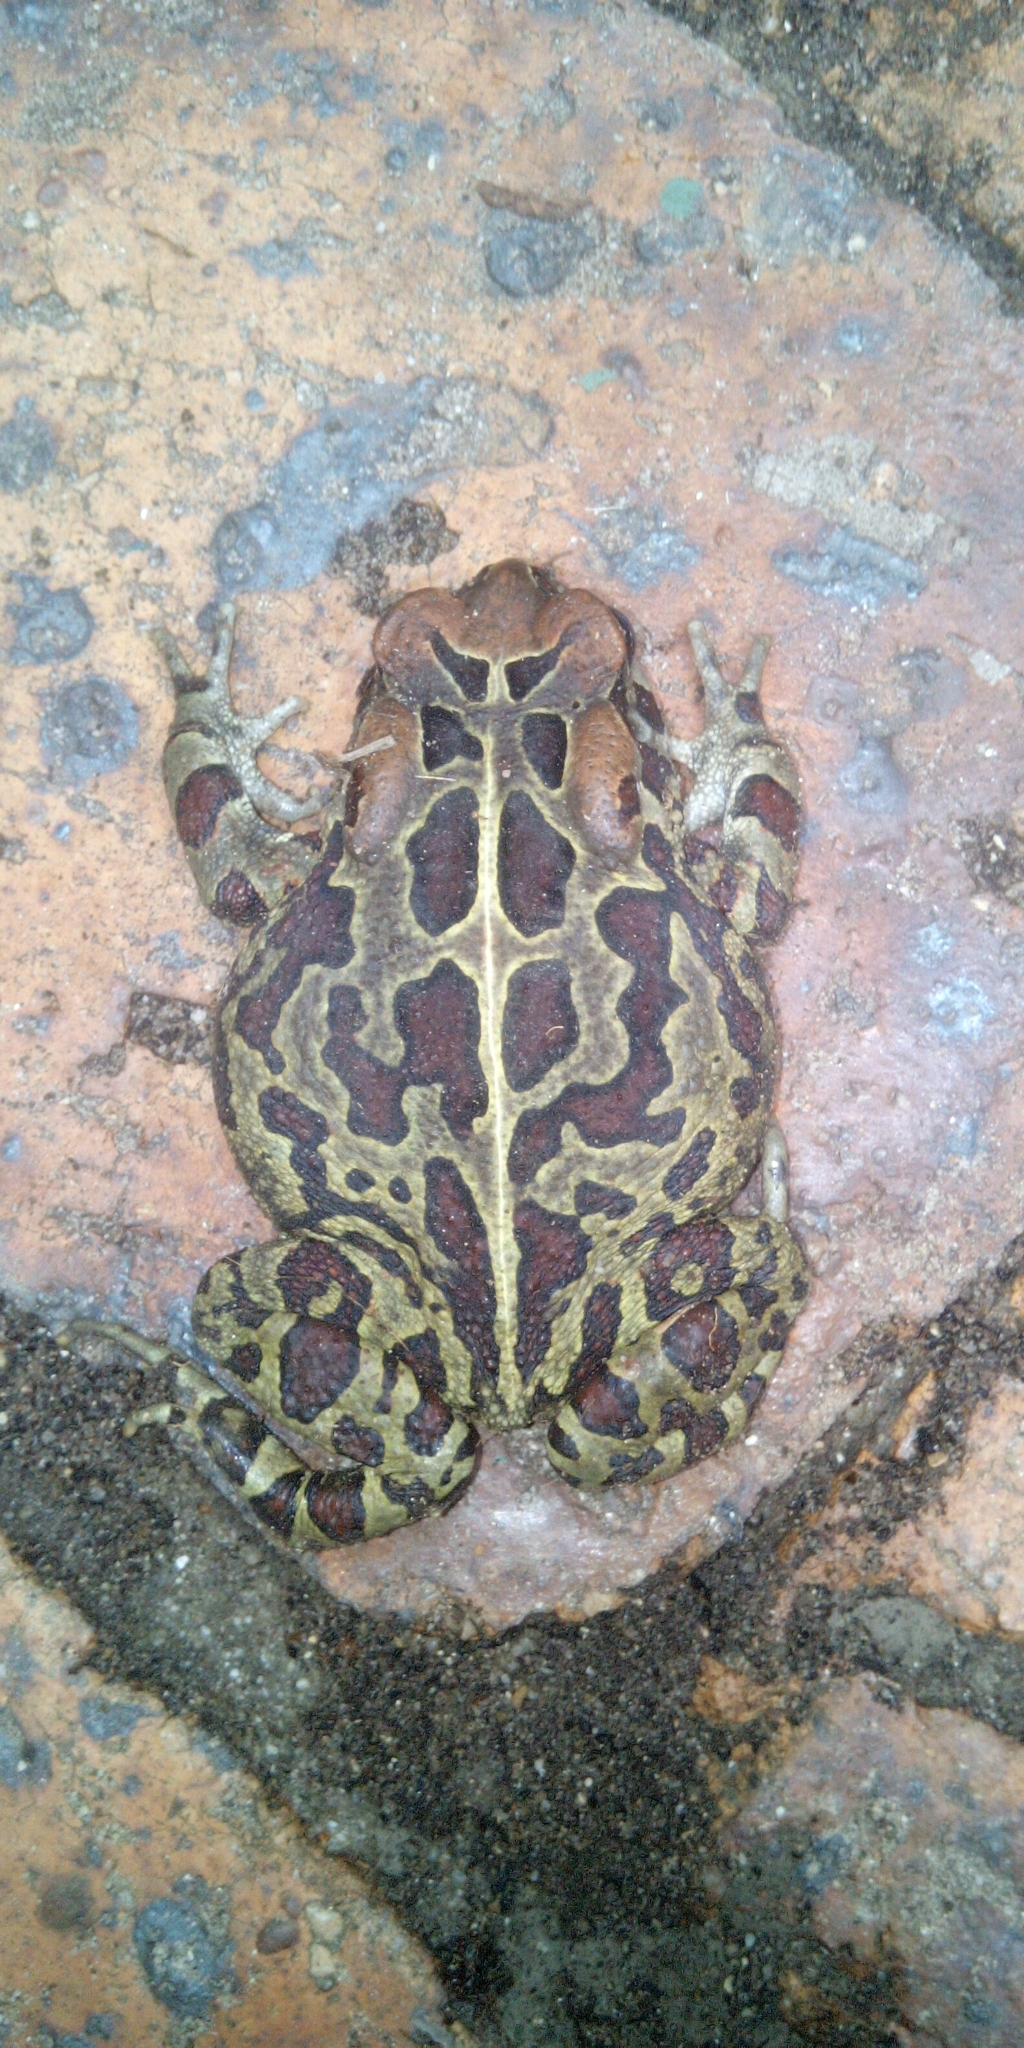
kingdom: Animalia
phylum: Chordata
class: Amphibia
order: Anura
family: Bufonidae
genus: Sclerophrys
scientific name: Sclerophrys pantherina
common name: Panther toad
